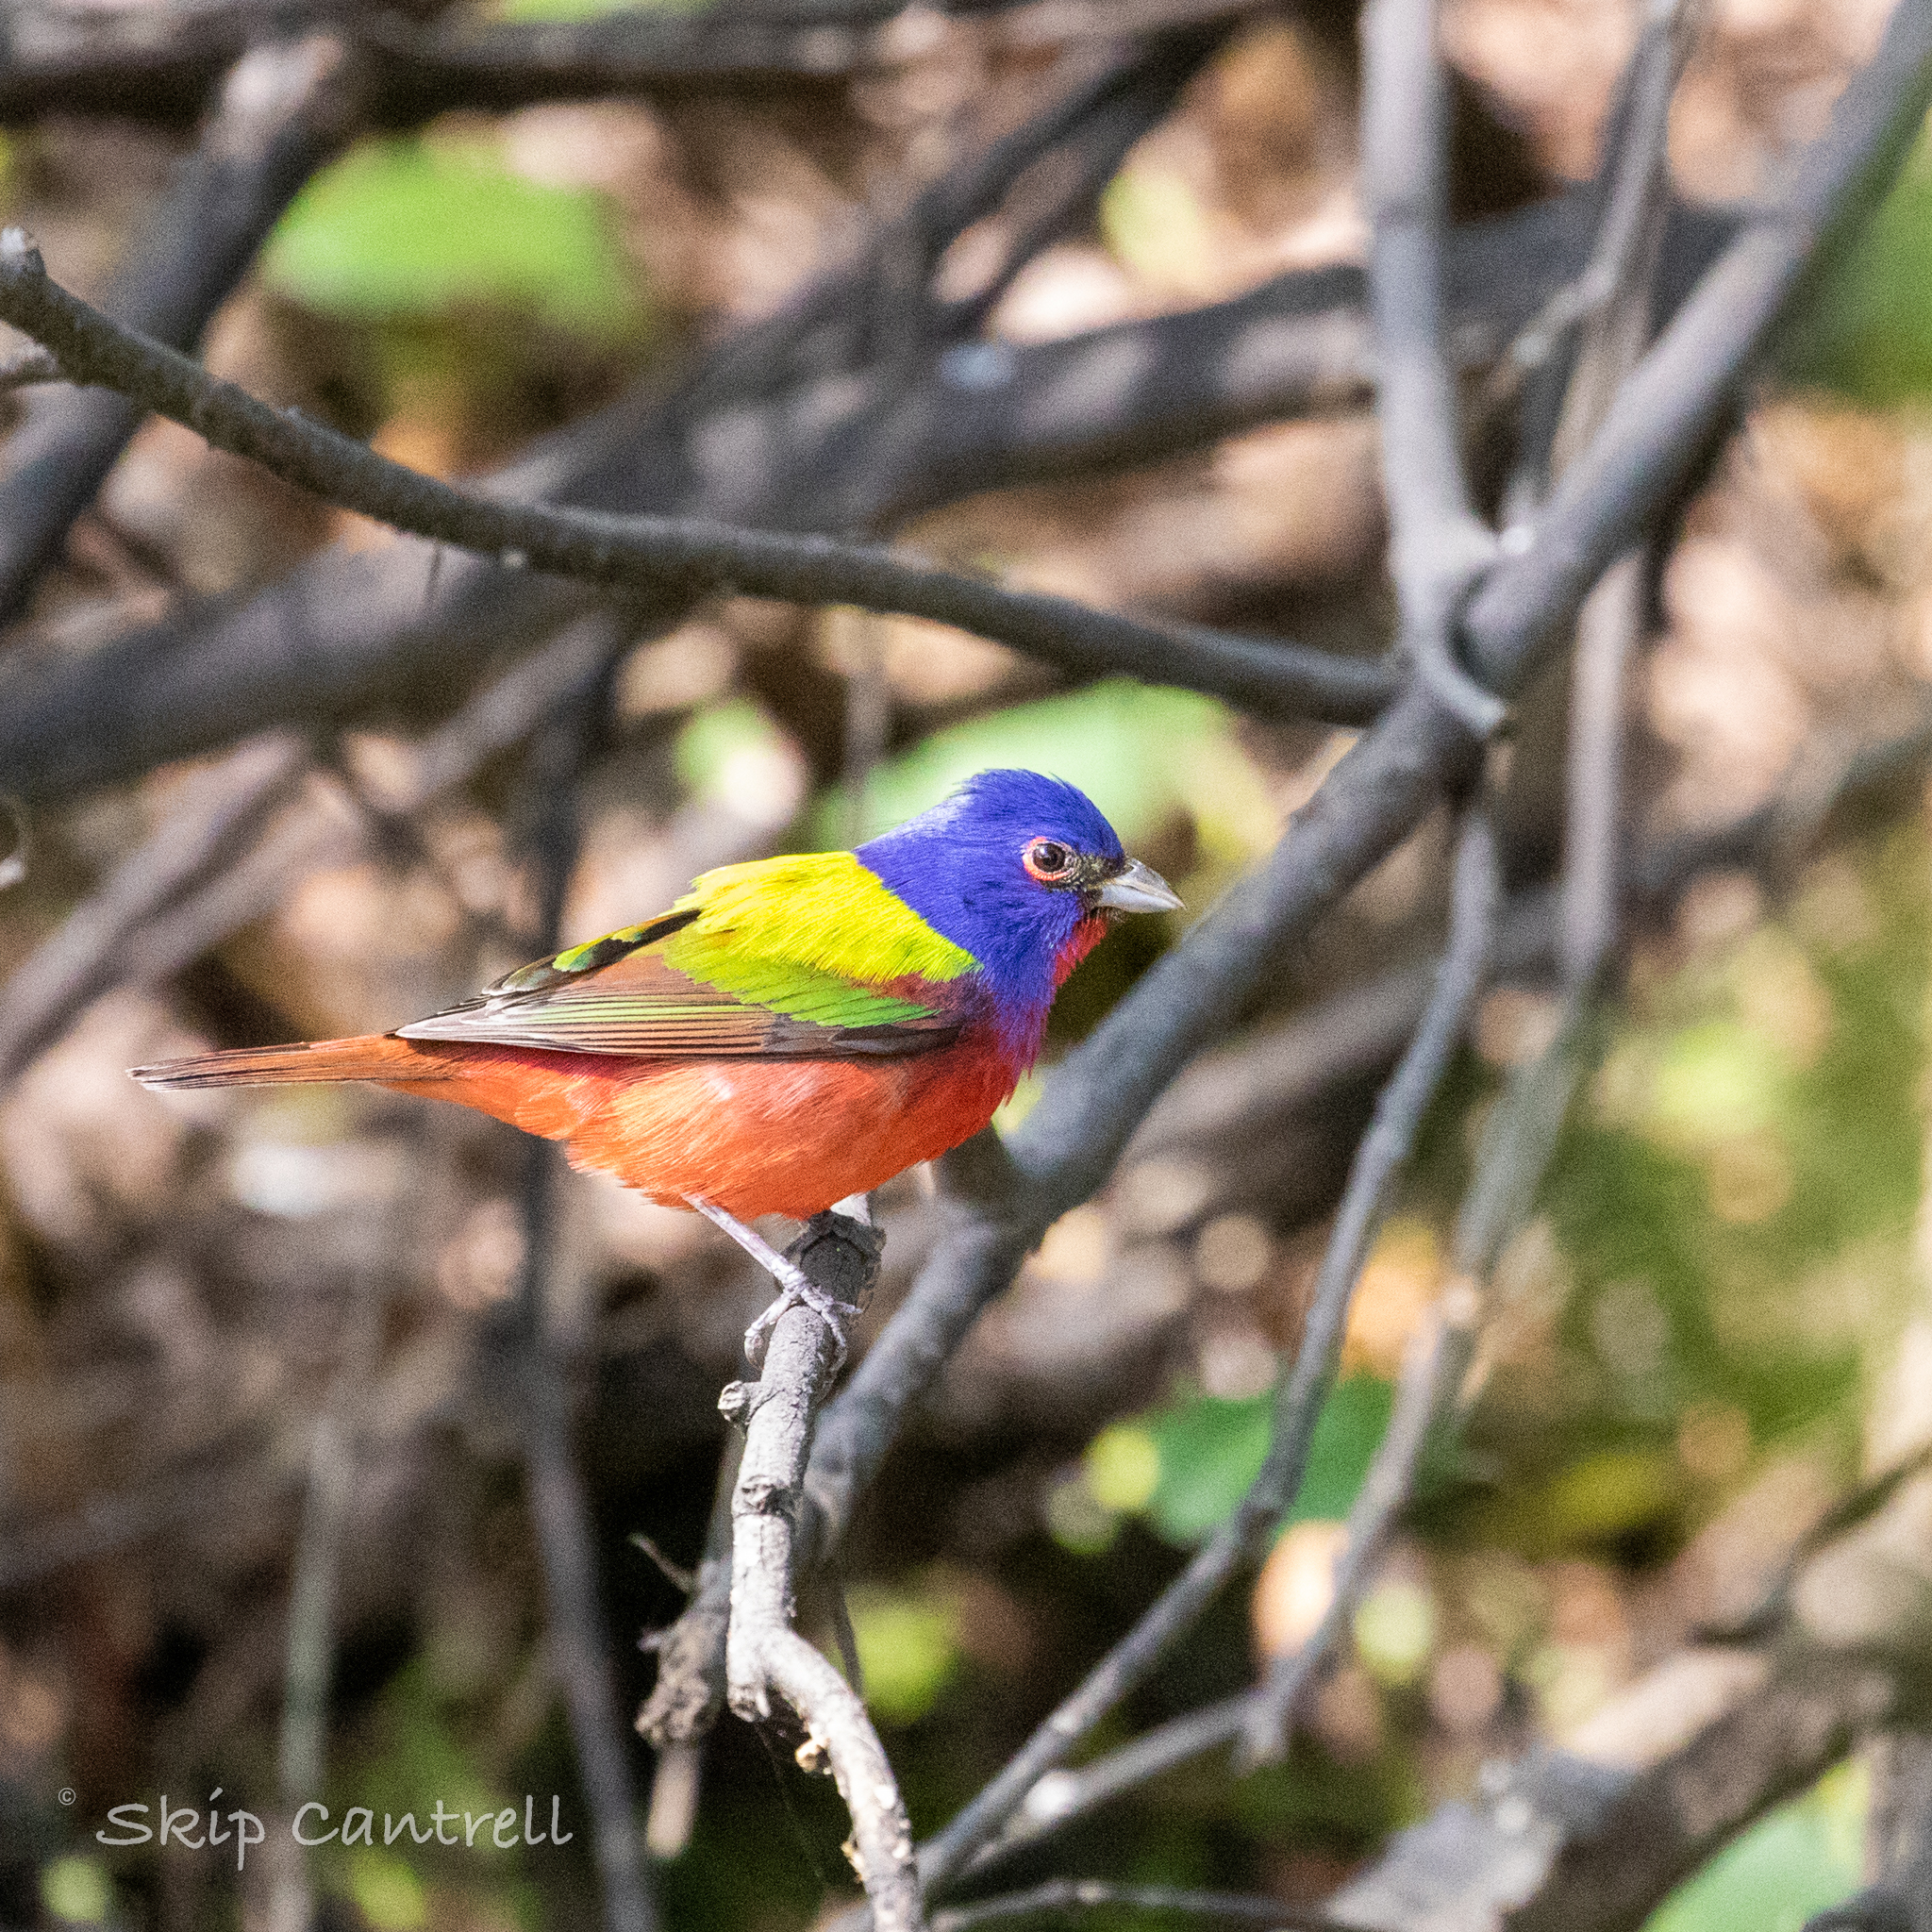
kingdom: Animalia
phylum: Chordata
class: Aves
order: Passeriformes
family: Cardinalidae
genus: Passerina
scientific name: Passerina ciris
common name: Painted bunting
